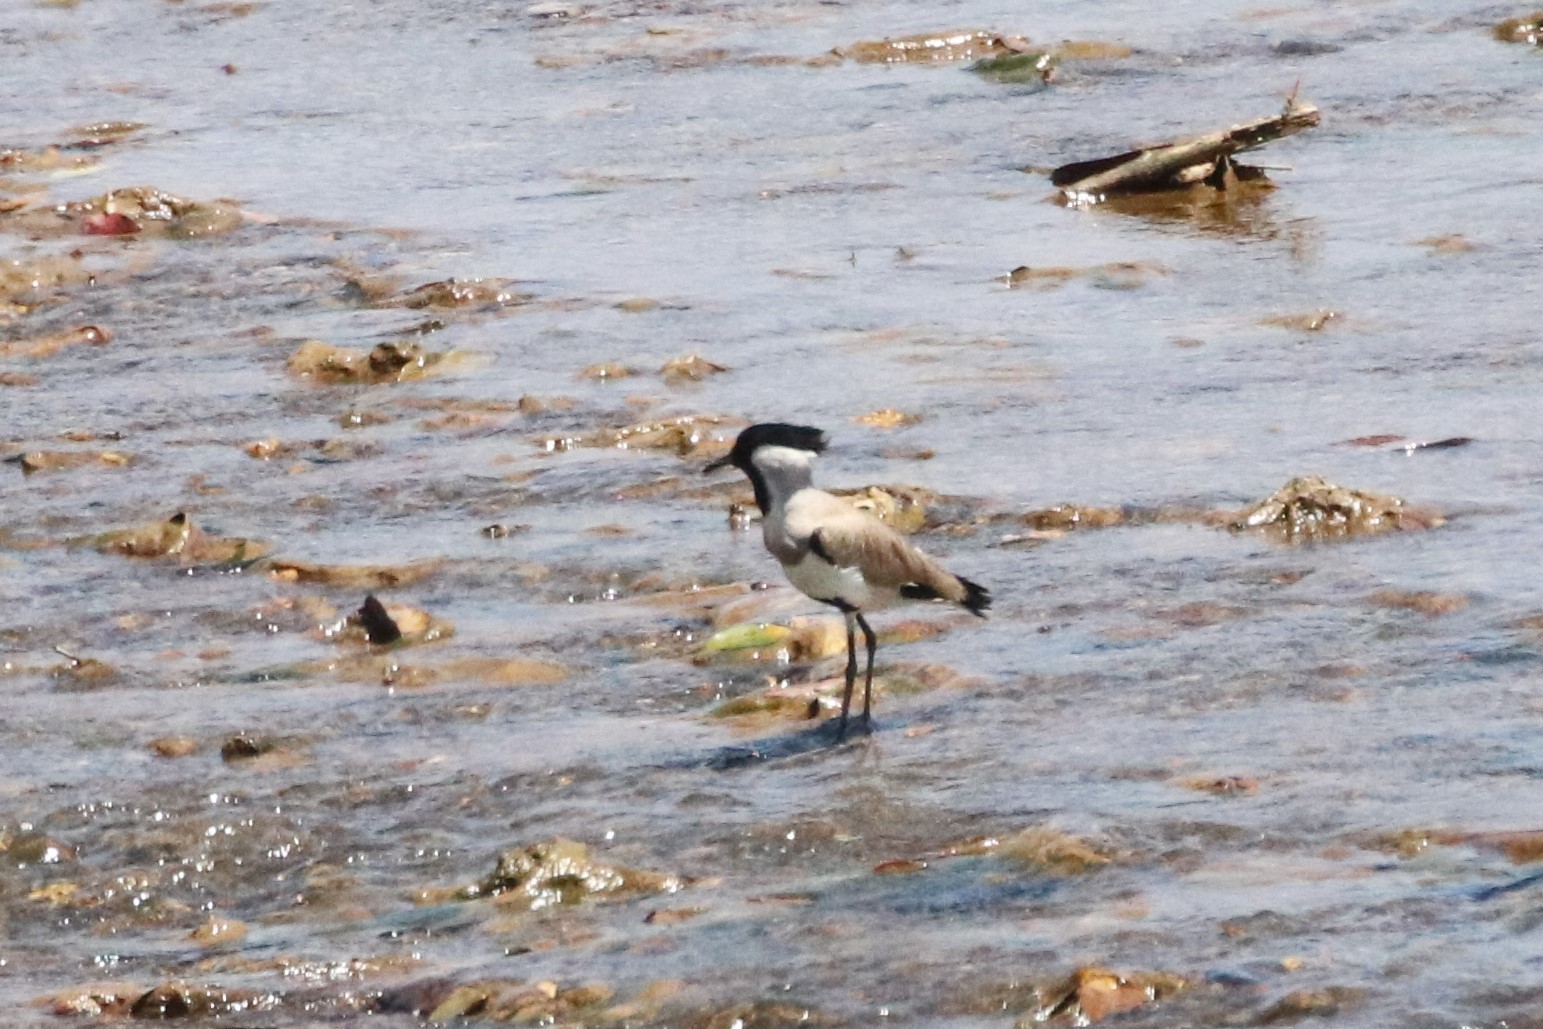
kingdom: Animalia
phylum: Chordata
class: Aves
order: Charadriiformes
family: Charadriidae
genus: Vanellus
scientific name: Vanellus duvaucelii
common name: River lapwing
